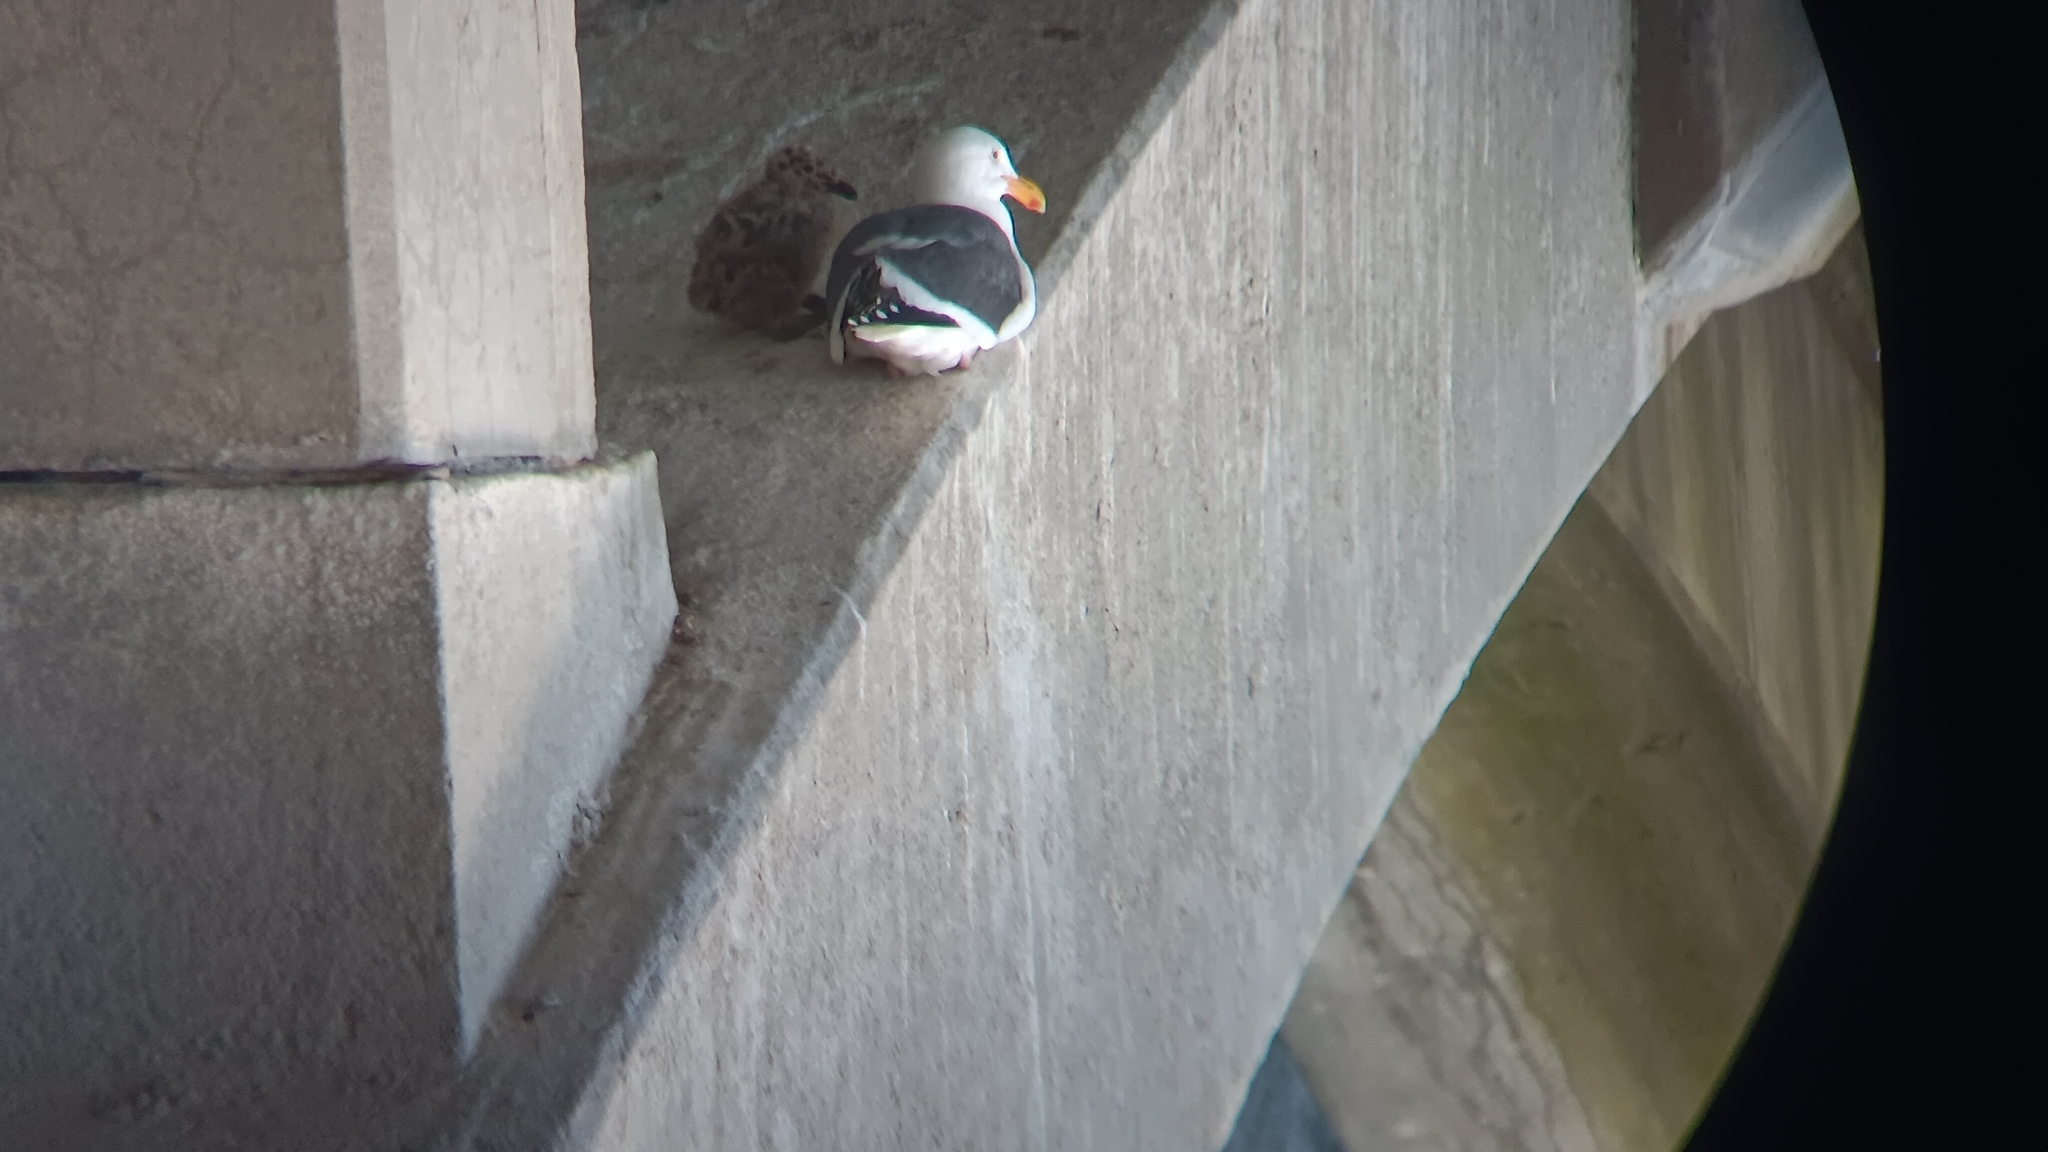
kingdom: Animalia
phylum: Chordata
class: Aves
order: Charadriiformes
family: Laridae
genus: Larus
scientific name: Larus occidentalis
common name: Western gull
